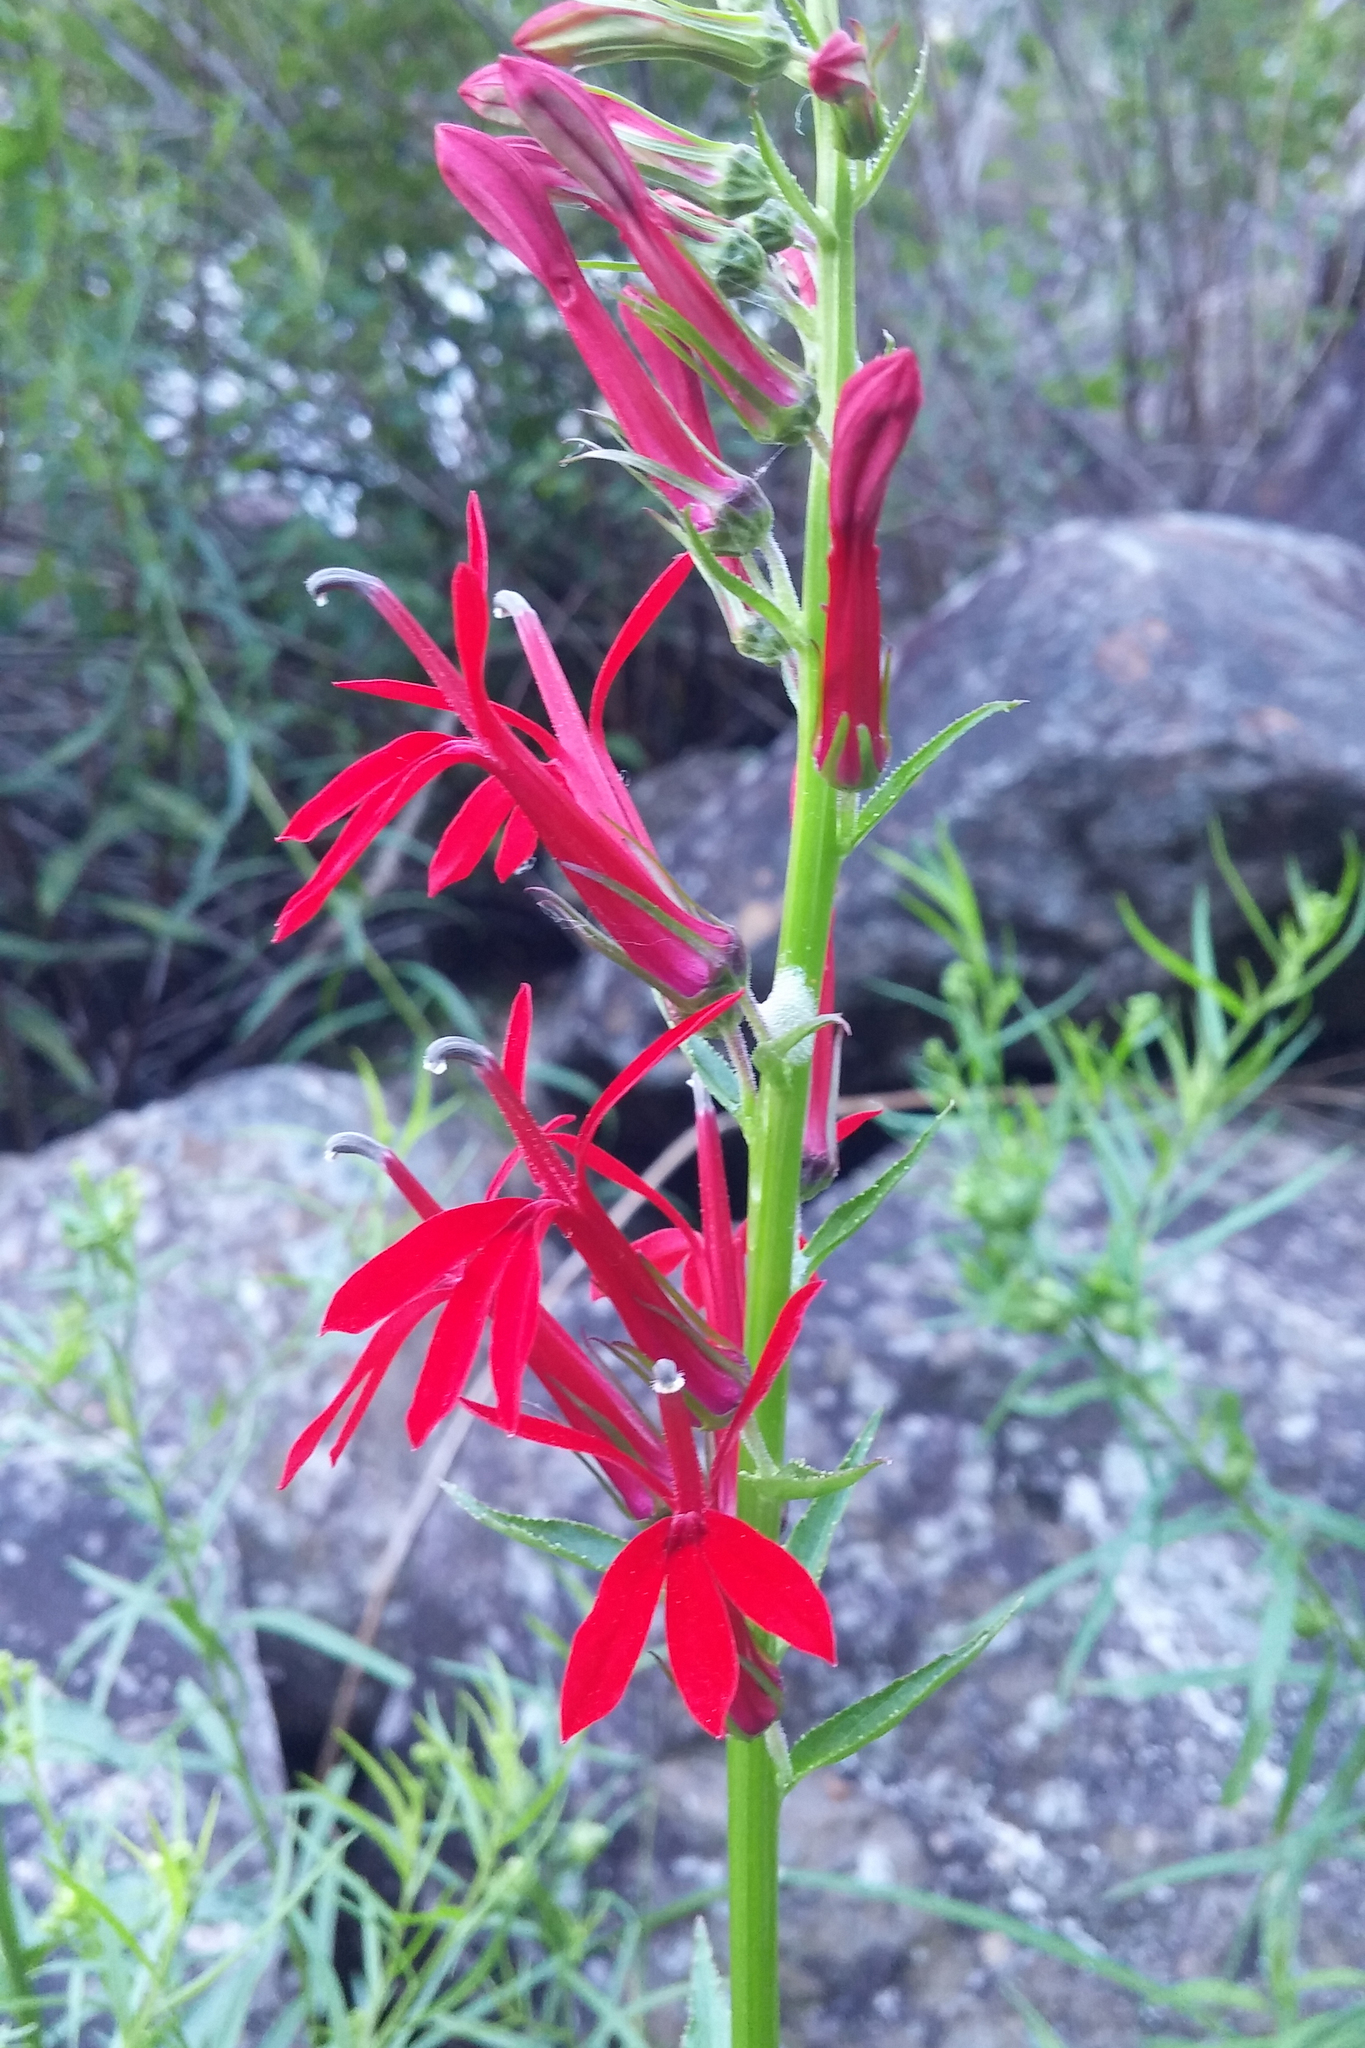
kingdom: Plantae
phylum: Tracheophyta
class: Magnoliopsida
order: Asterales
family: Campanulaceae
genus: Lobelia
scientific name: Lobelia cardinalis
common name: Cardinal flower
